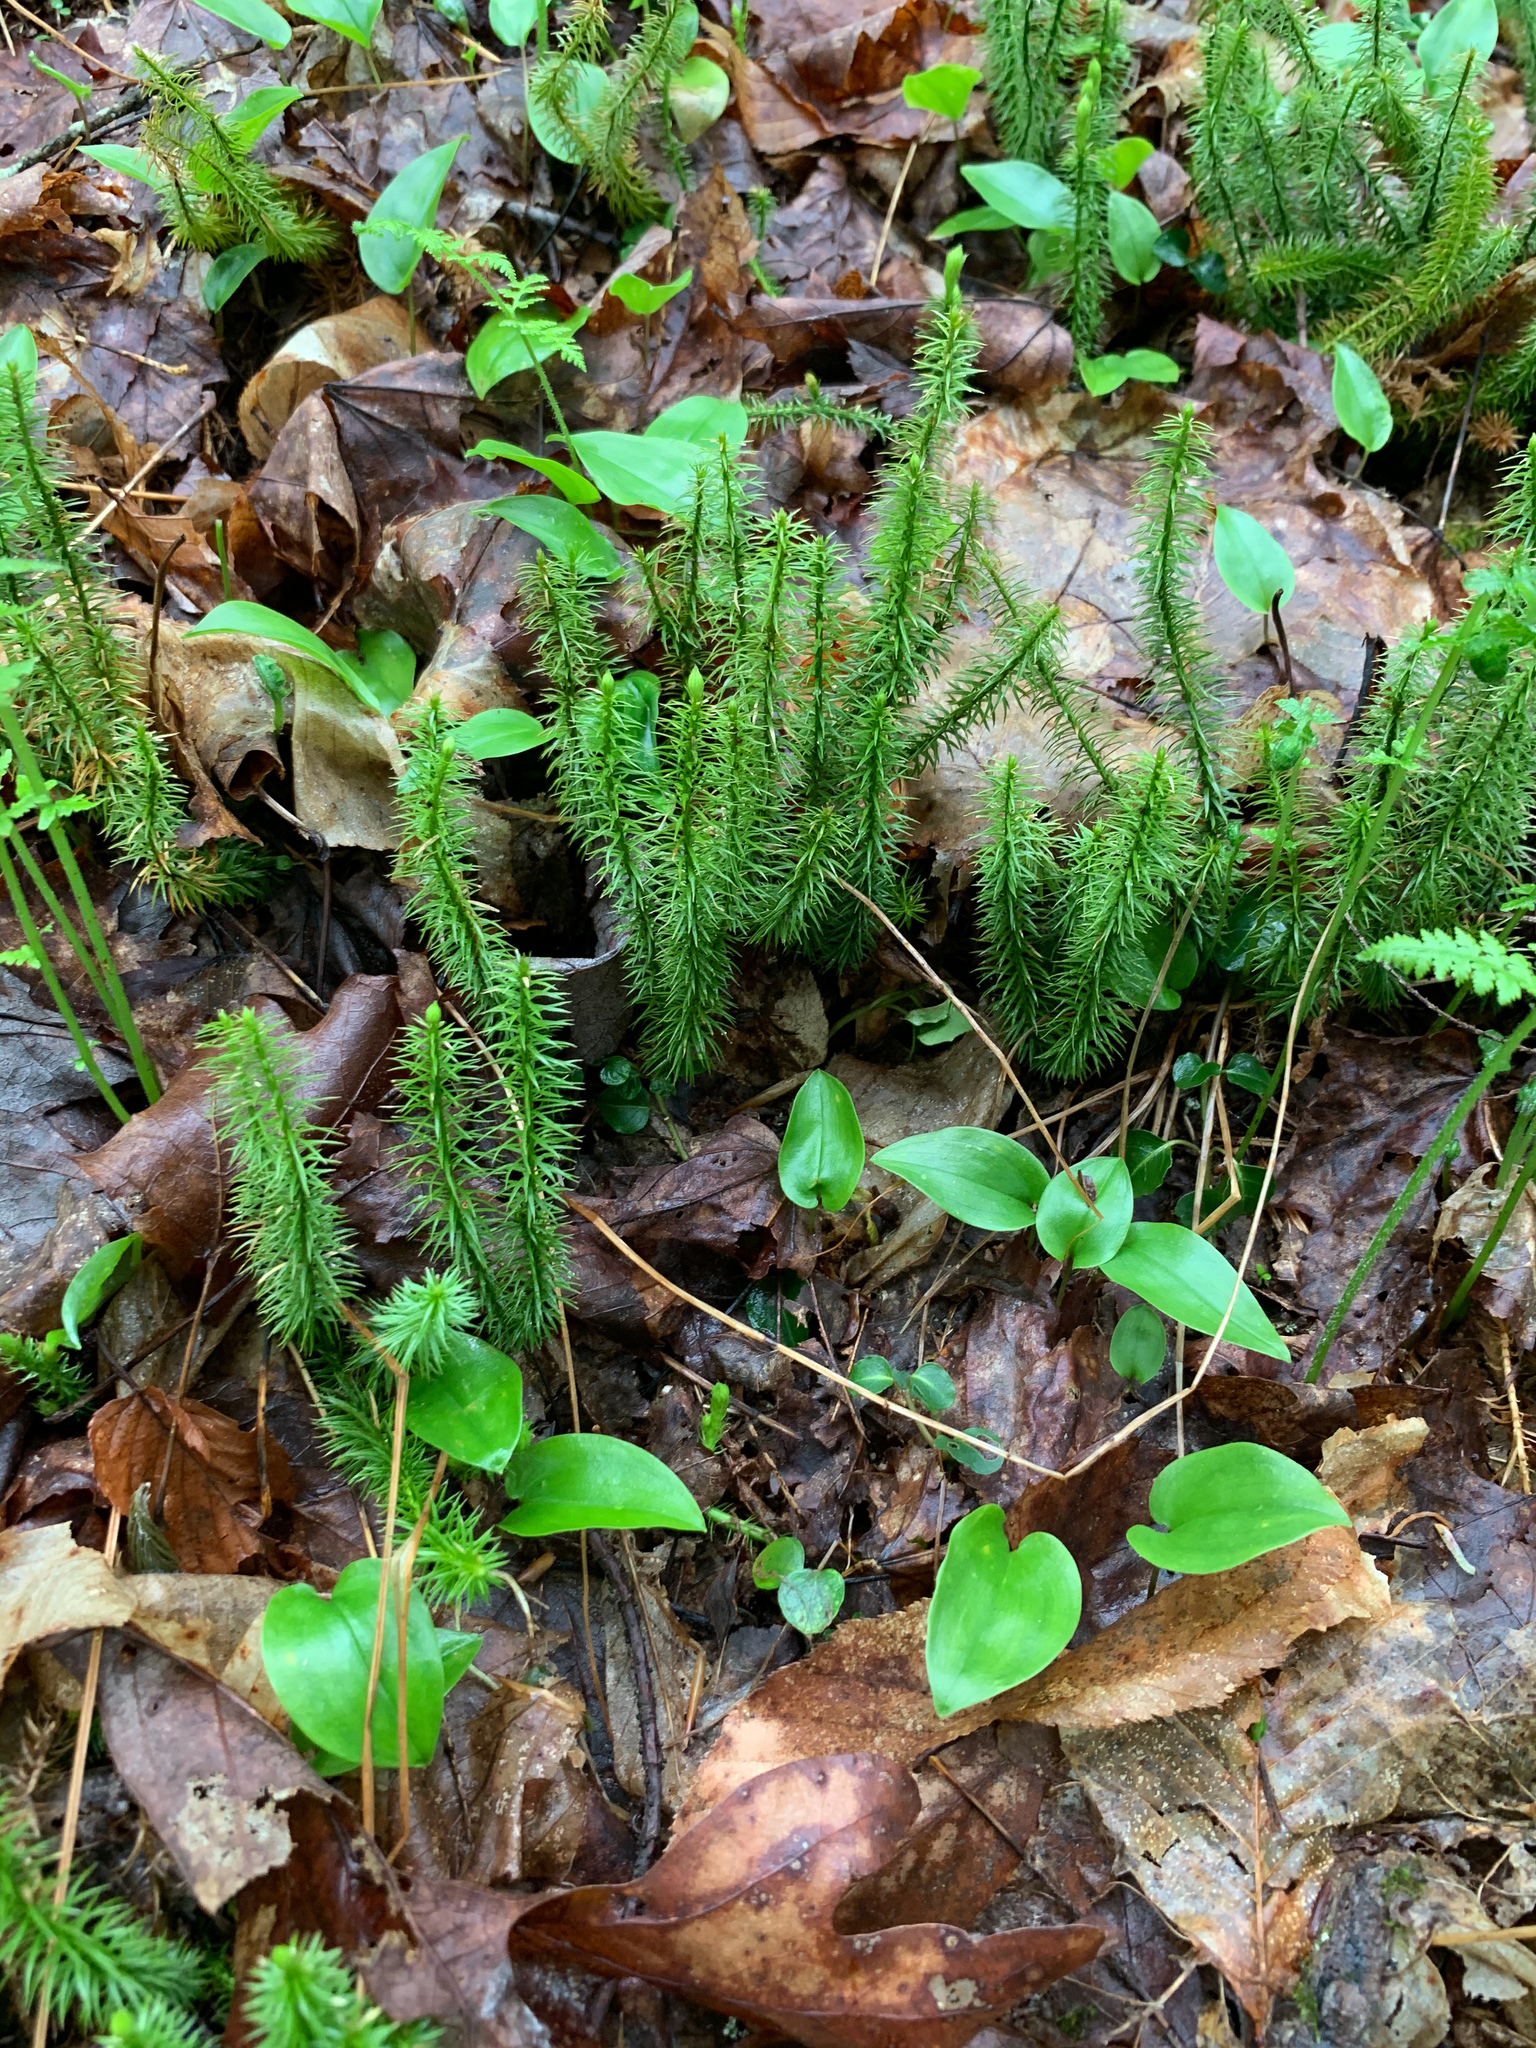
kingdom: Plantae
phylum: Tracheophyta
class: Lycopodiopsida
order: Lycopodiales
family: Lycopodiaceae
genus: Spinulum
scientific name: Spinulum annotinum
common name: Interrupted club-moss
